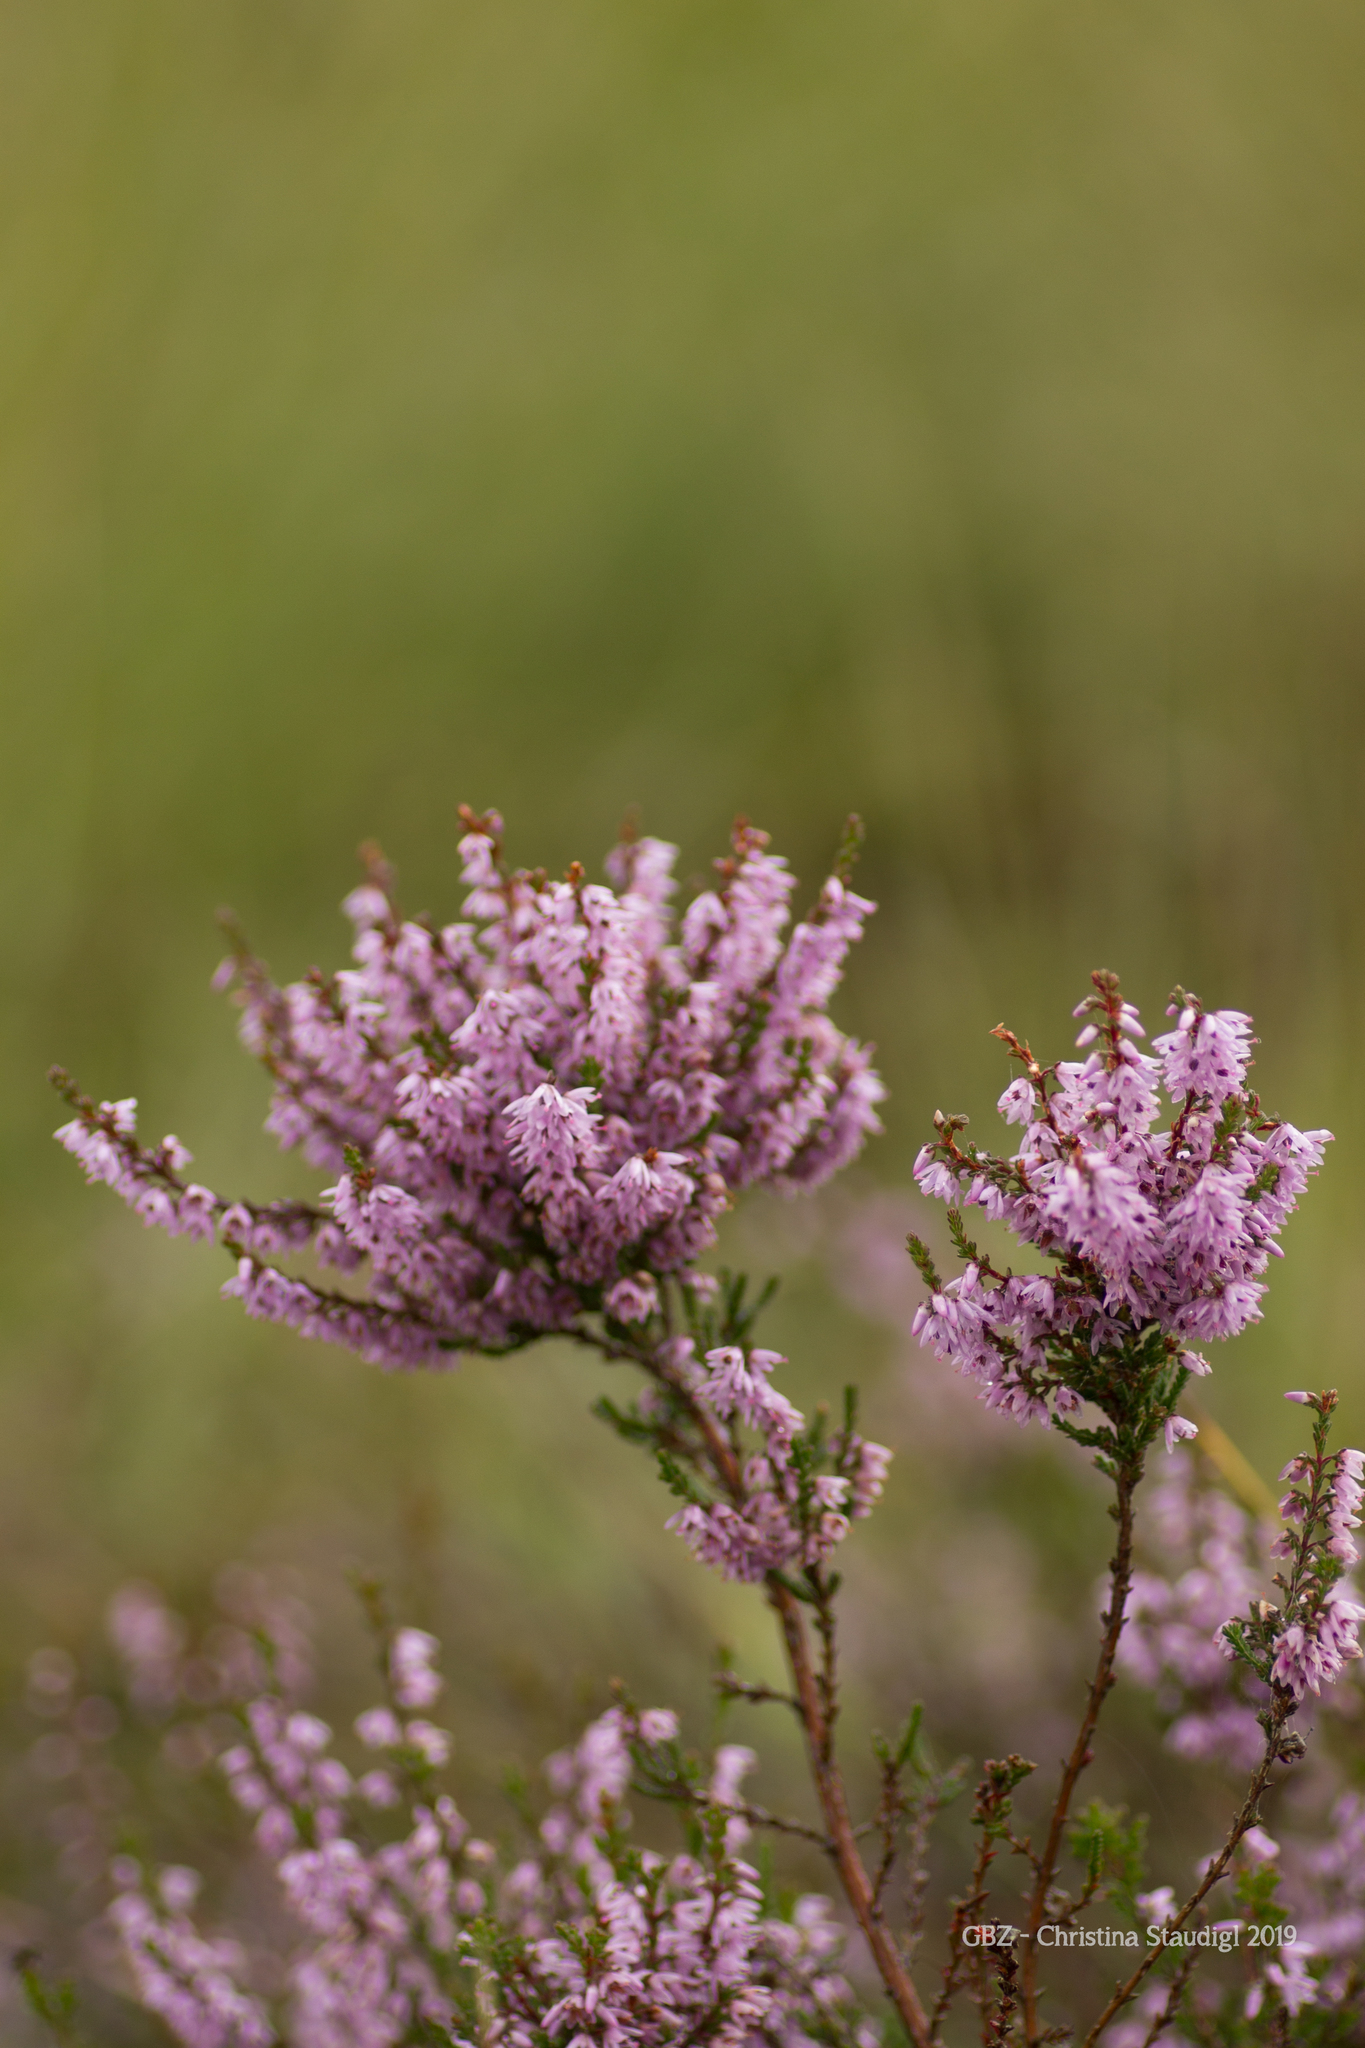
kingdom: Plantae
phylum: Tracheophyta
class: Magnoliopsida
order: Ericales
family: Ericaceae
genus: Calluna
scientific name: Calluna vulgaris
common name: Heather
